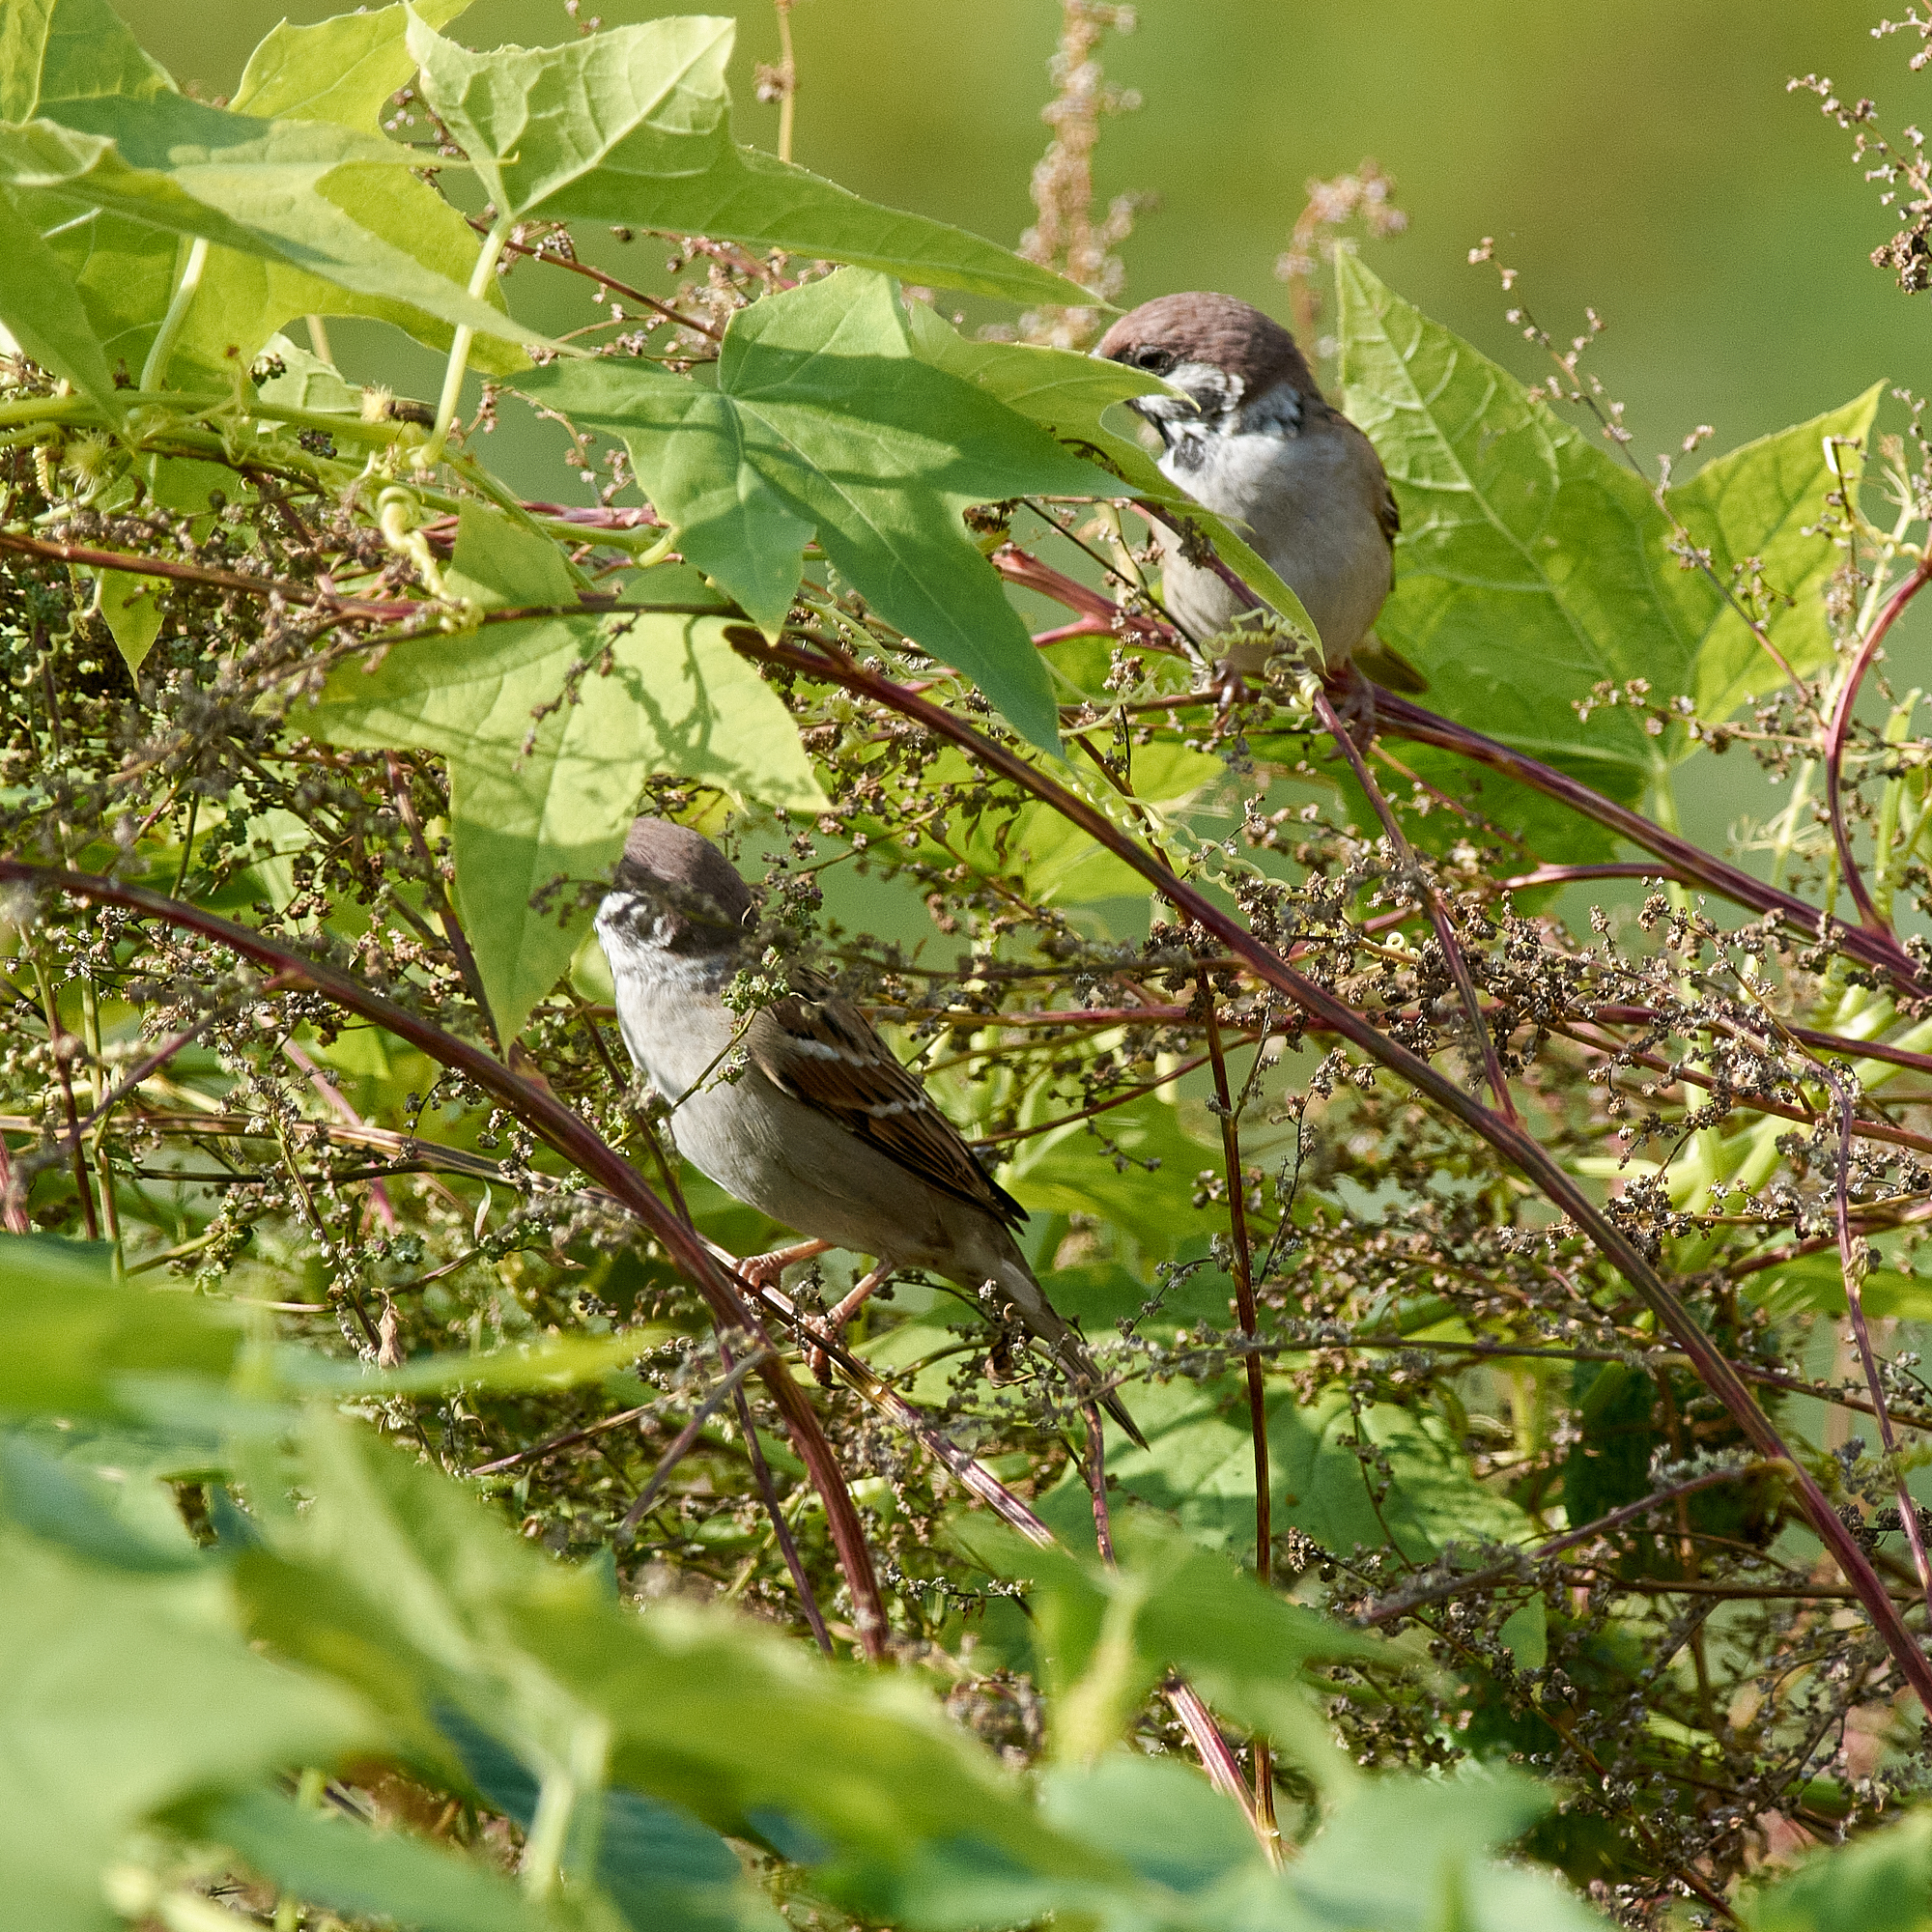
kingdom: Animalia
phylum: Chordata
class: Aves
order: Passeriformes
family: Passeridae
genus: Passer
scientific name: Passer montanus
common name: Eurasian tree sparrow
